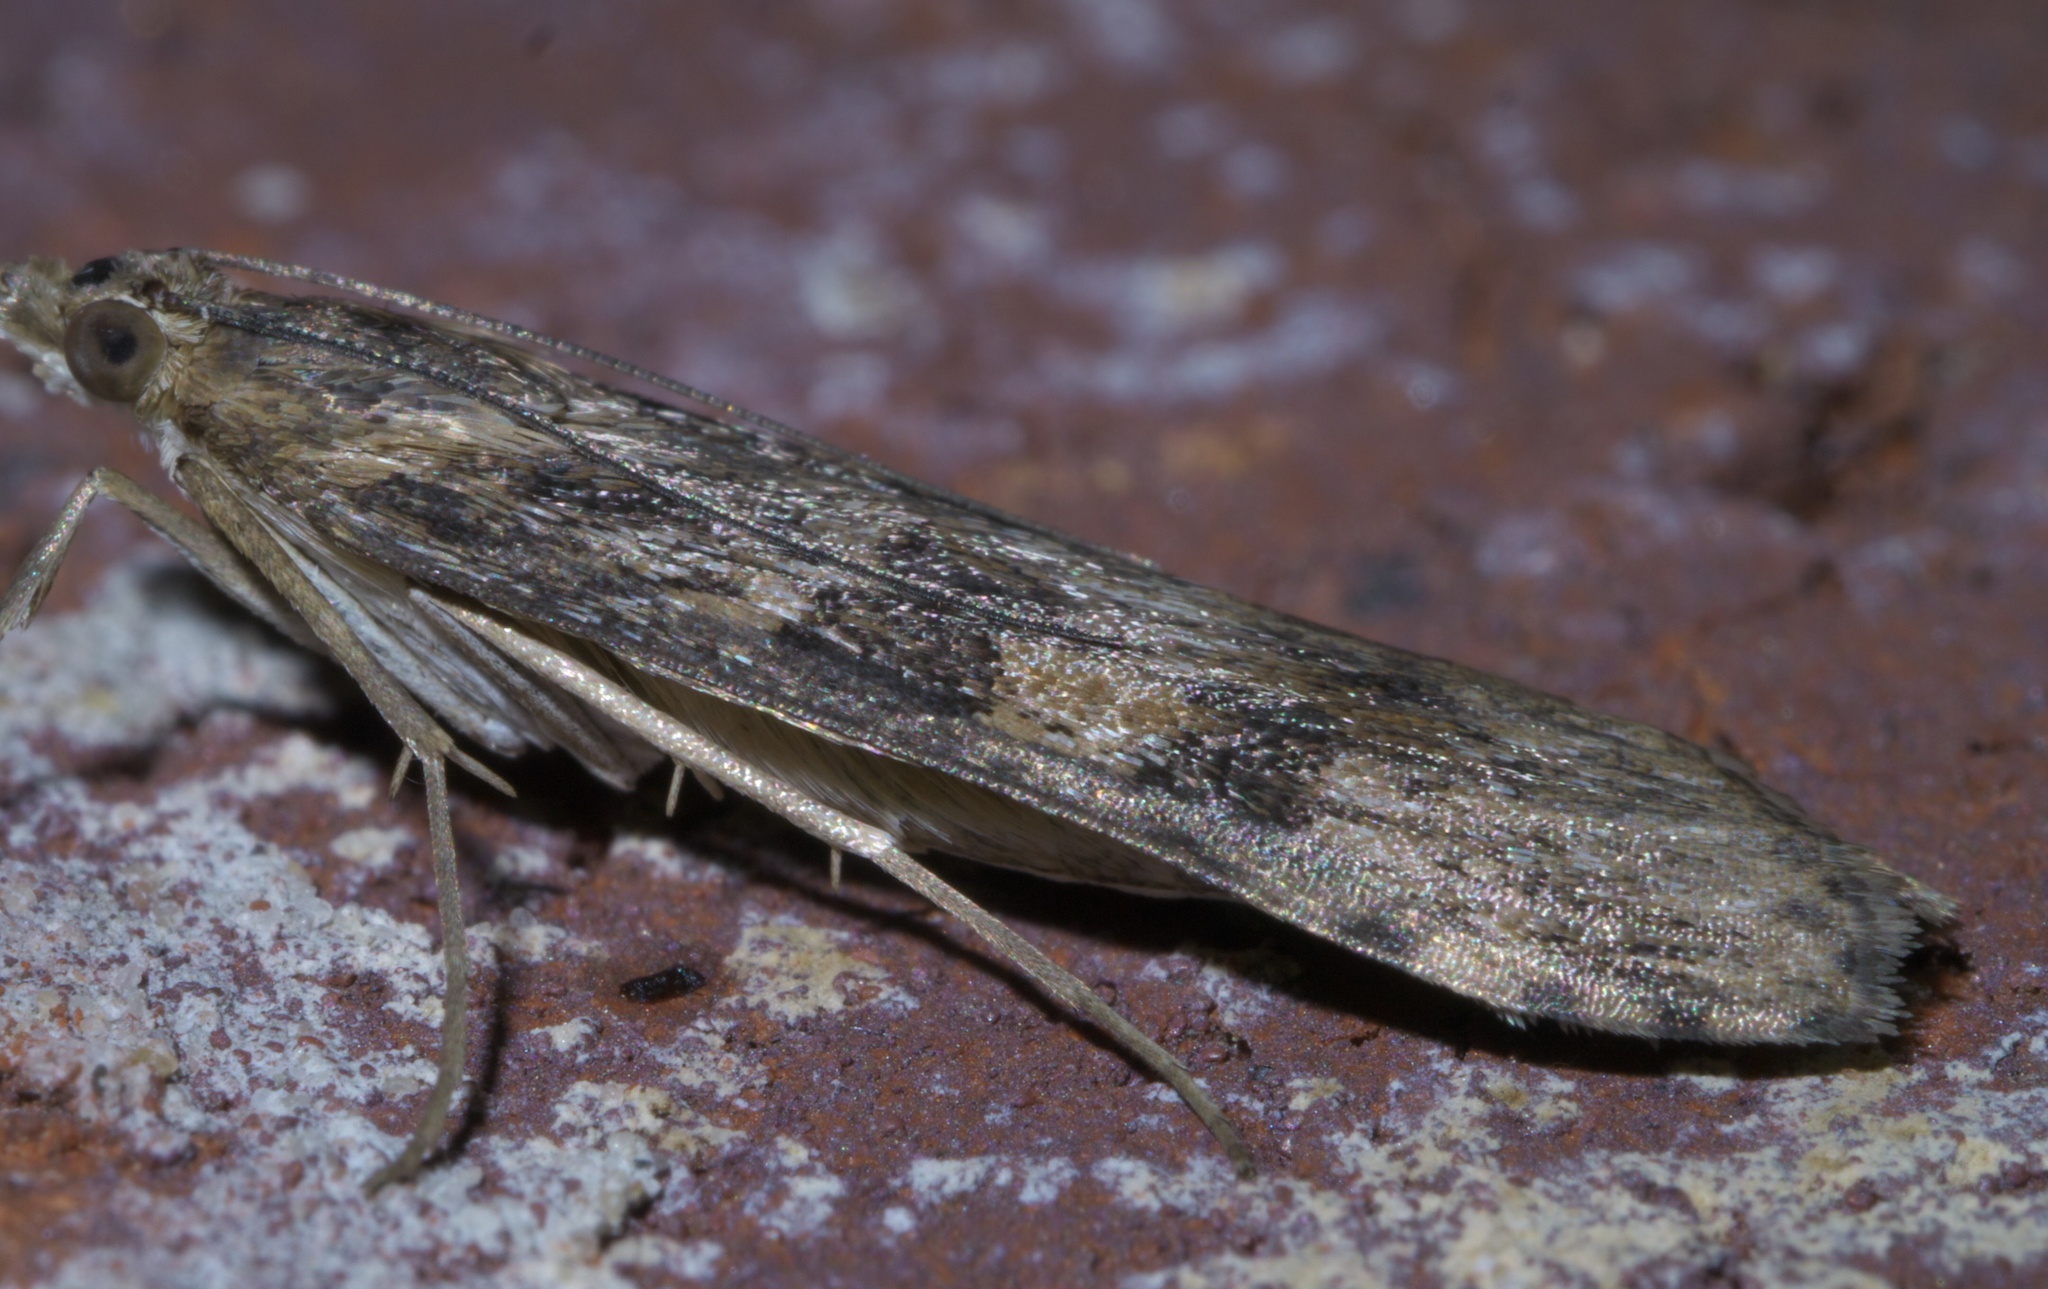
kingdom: Animalia
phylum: Arthropoda
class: Insecta
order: Lepidoptera
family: Crambidae
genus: Nomophila
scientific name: Nomophila nearctica
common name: American rush veneer
